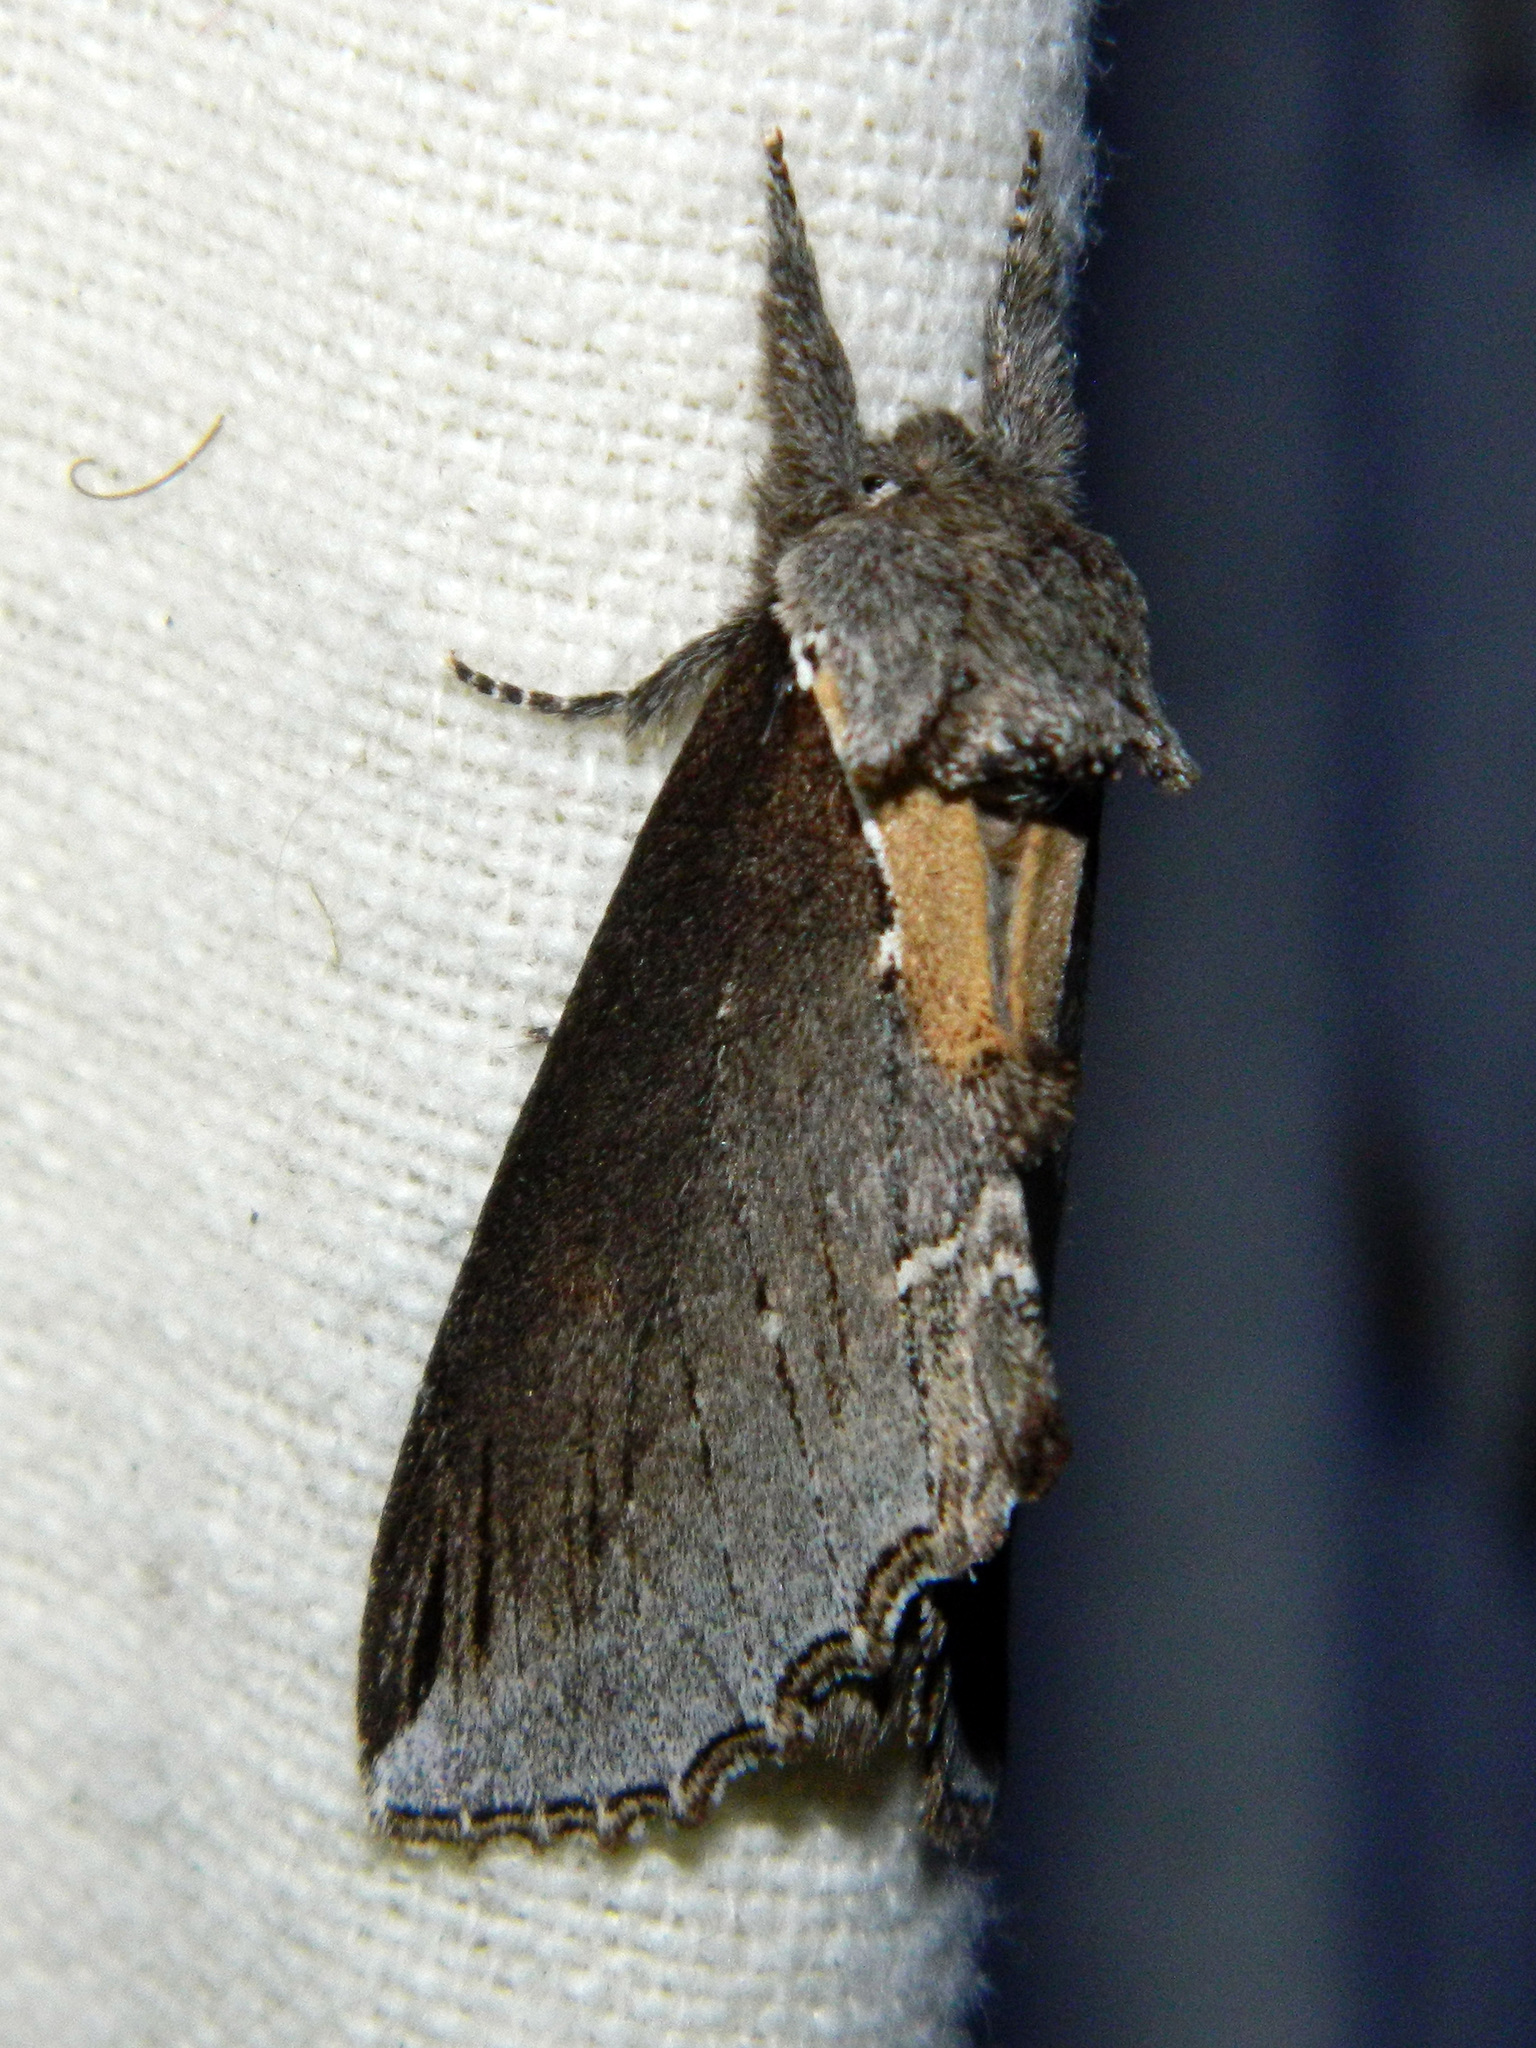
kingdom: Animalia
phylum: Arthropoda
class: Insecta
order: Lepidoptera
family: Notodontidae
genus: Pheosidea
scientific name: Pheosidea elegans
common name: Elegant prominent
